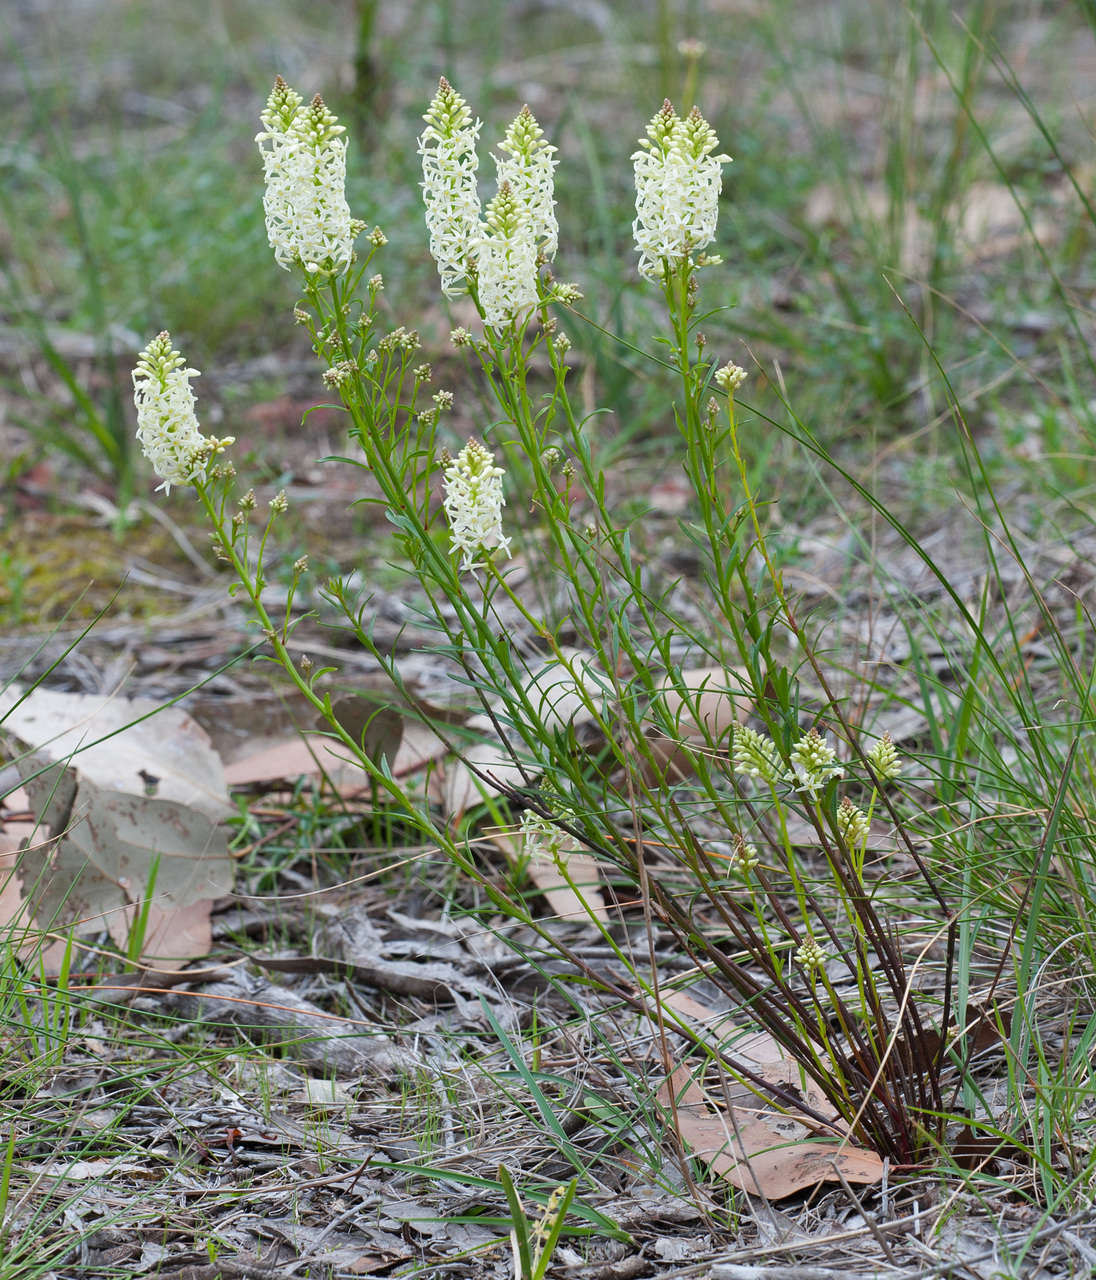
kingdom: Plantae
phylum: Tracheophyta
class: Magnoliopsida
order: Celastrales
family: Celastraceae
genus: Stackhousia
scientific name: Stackhousia monogyna
